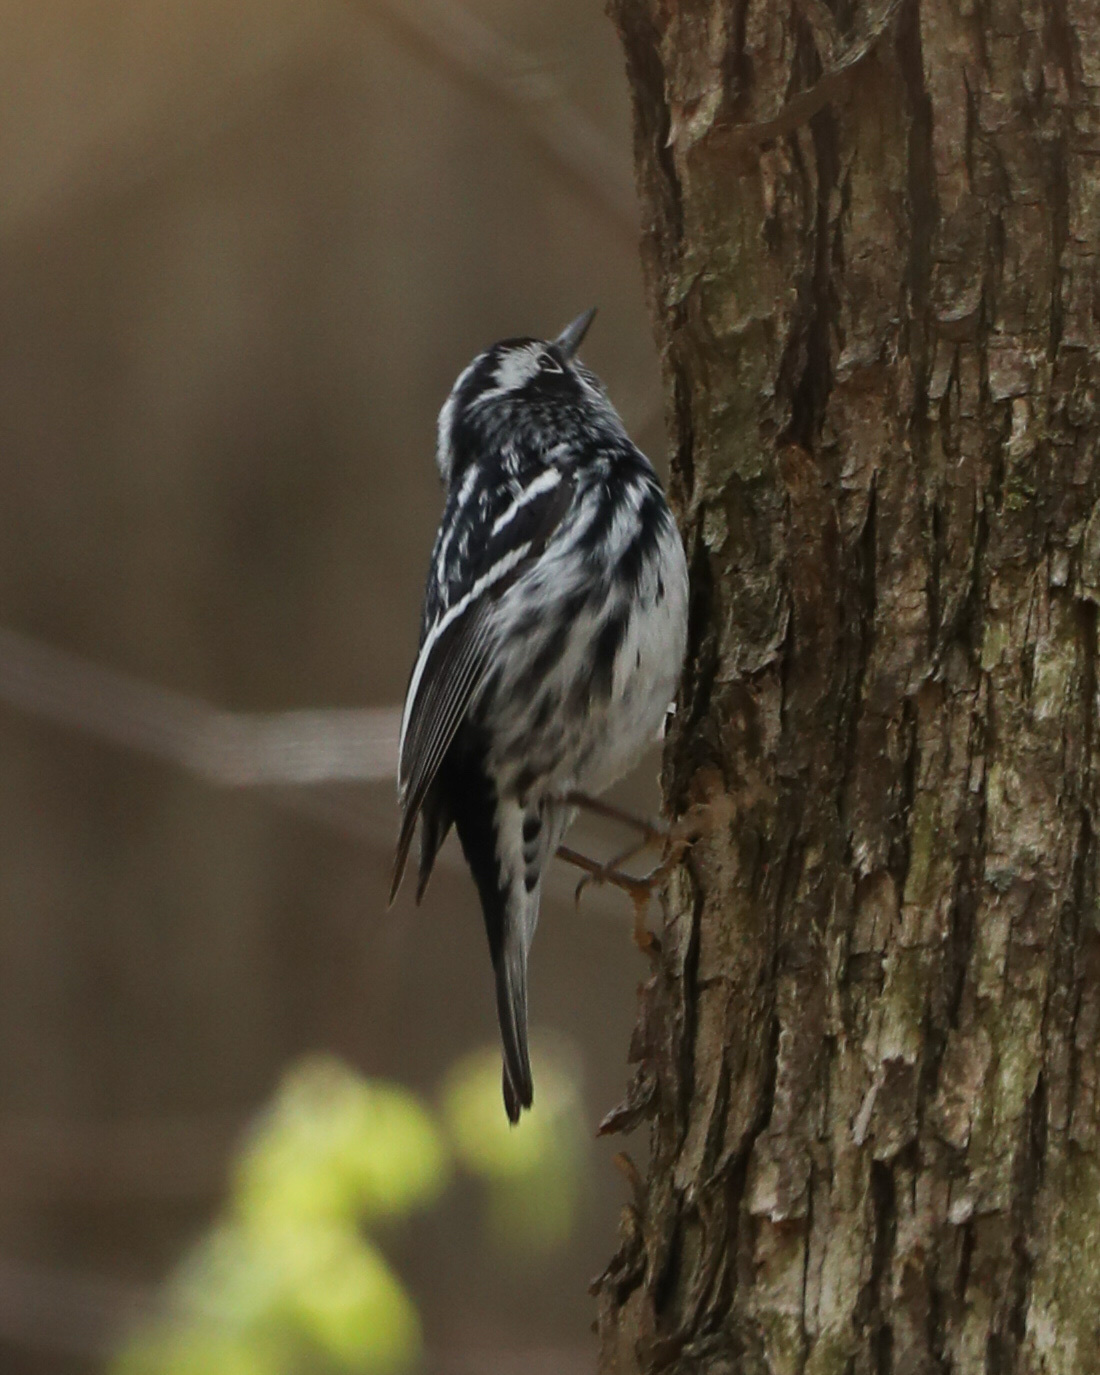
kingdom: Animalia
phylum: Chordata
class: Aves
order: Passeriformes
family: Parulidae
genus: Mniotilta
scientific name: Mniotilta varia
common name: Black-and-white warbler
